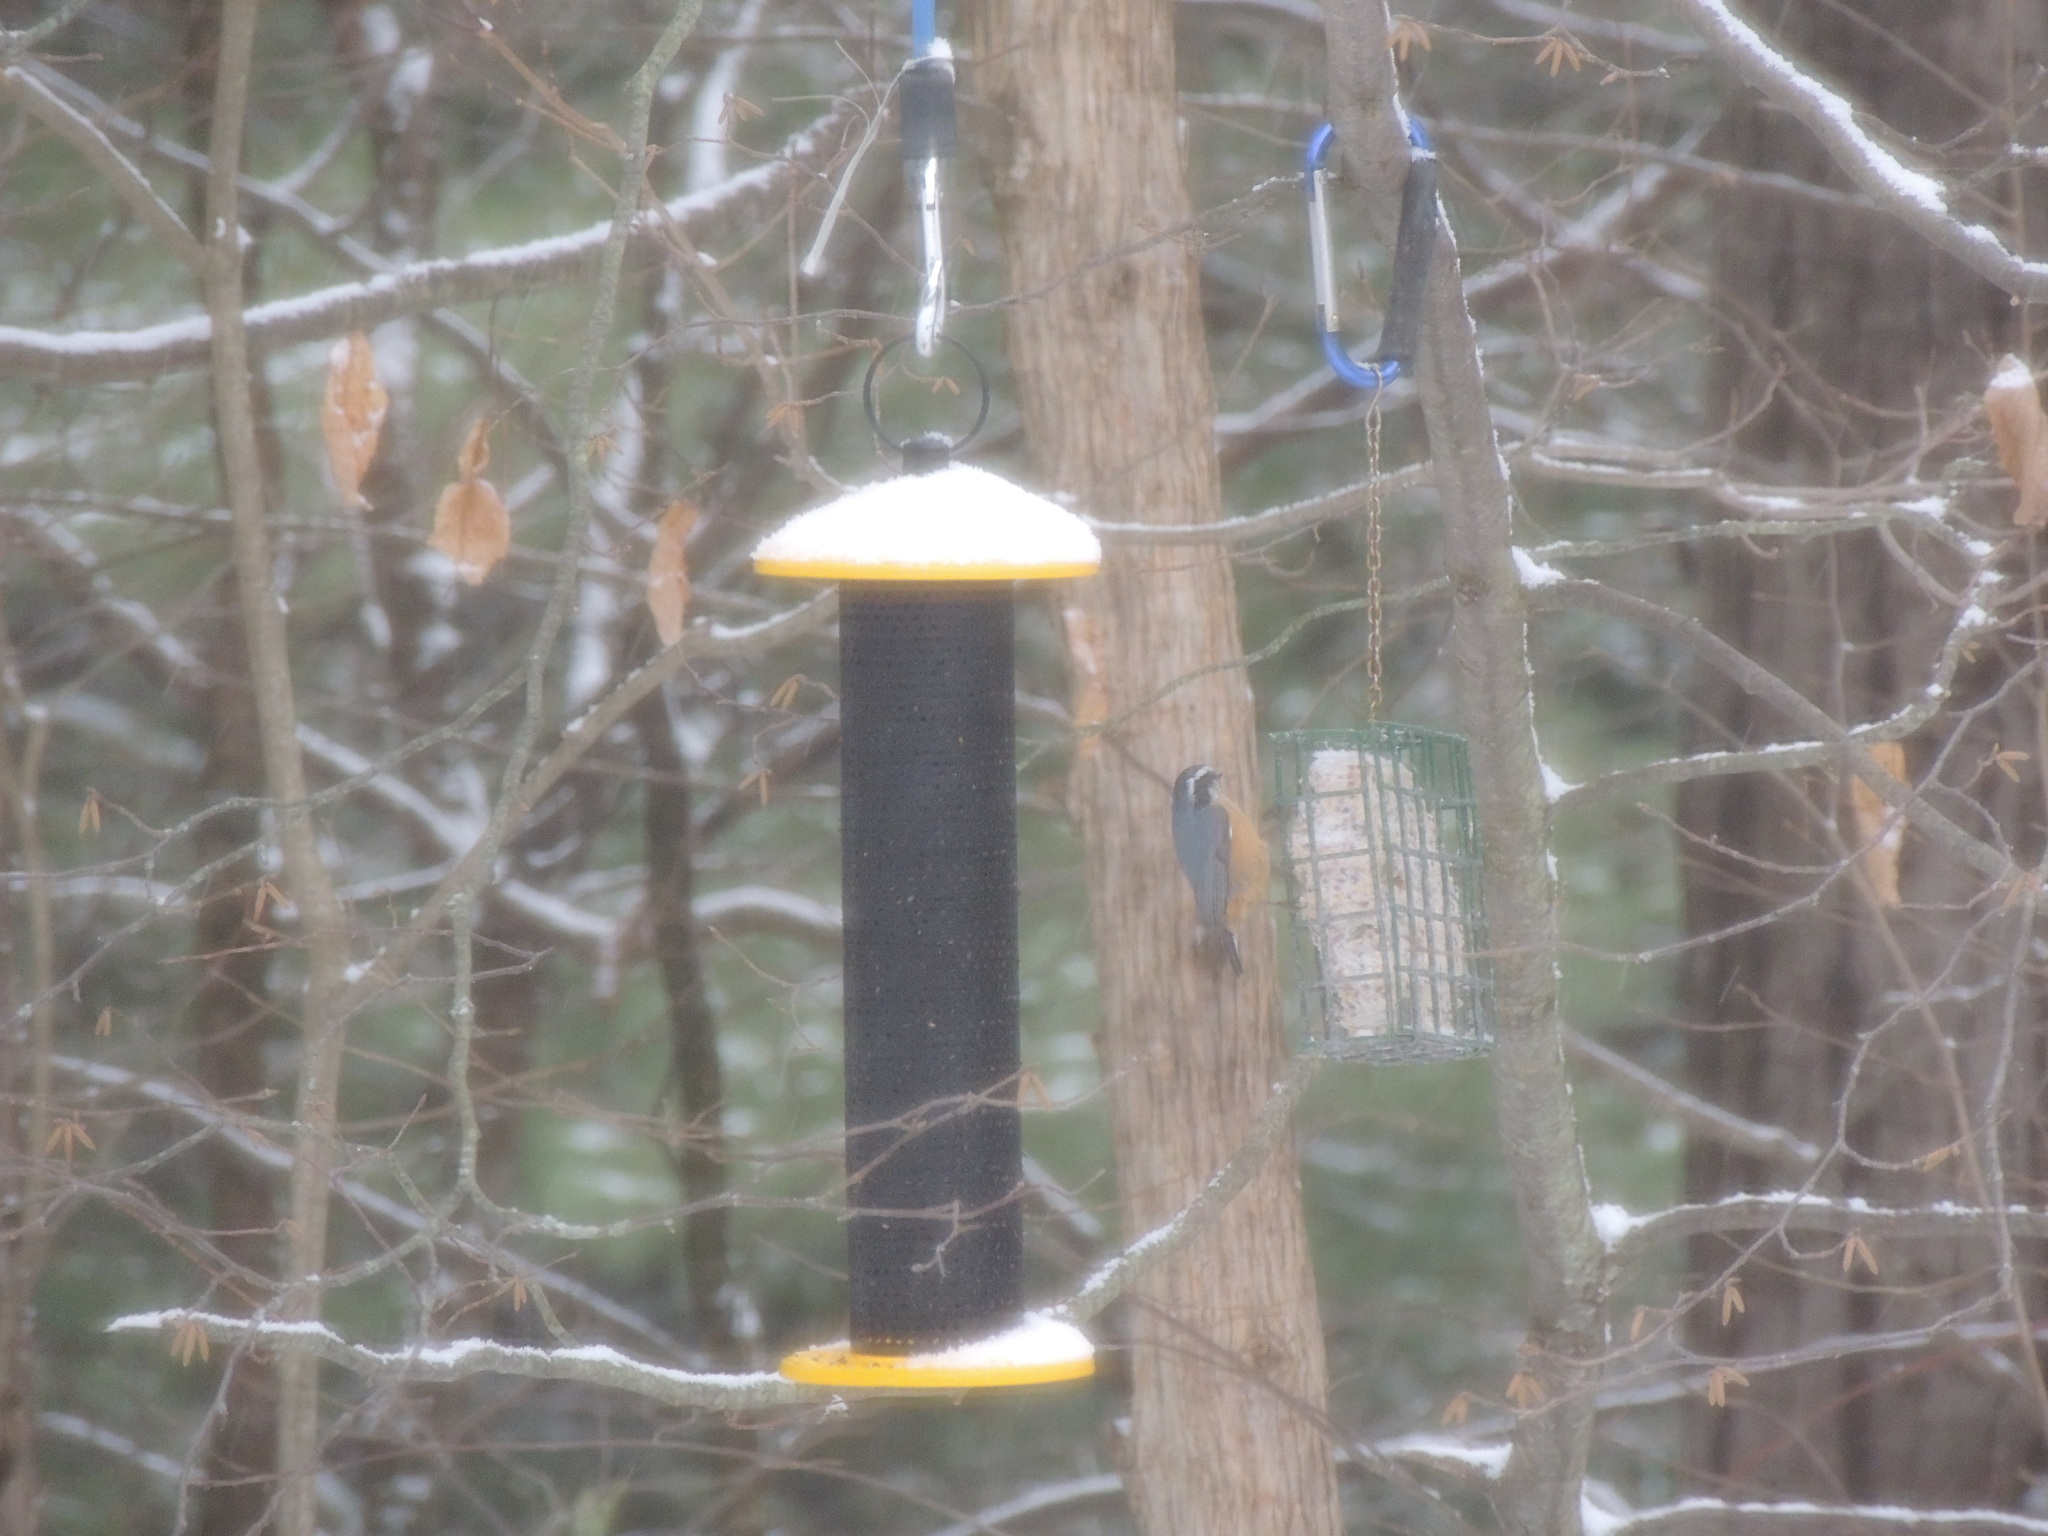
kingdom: Animalia
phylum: Chordata
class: Aves
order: Passeriformes
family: Sittidae
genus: Sitta
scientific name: Sitta canadensis
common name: Red-breasted nuthatch
